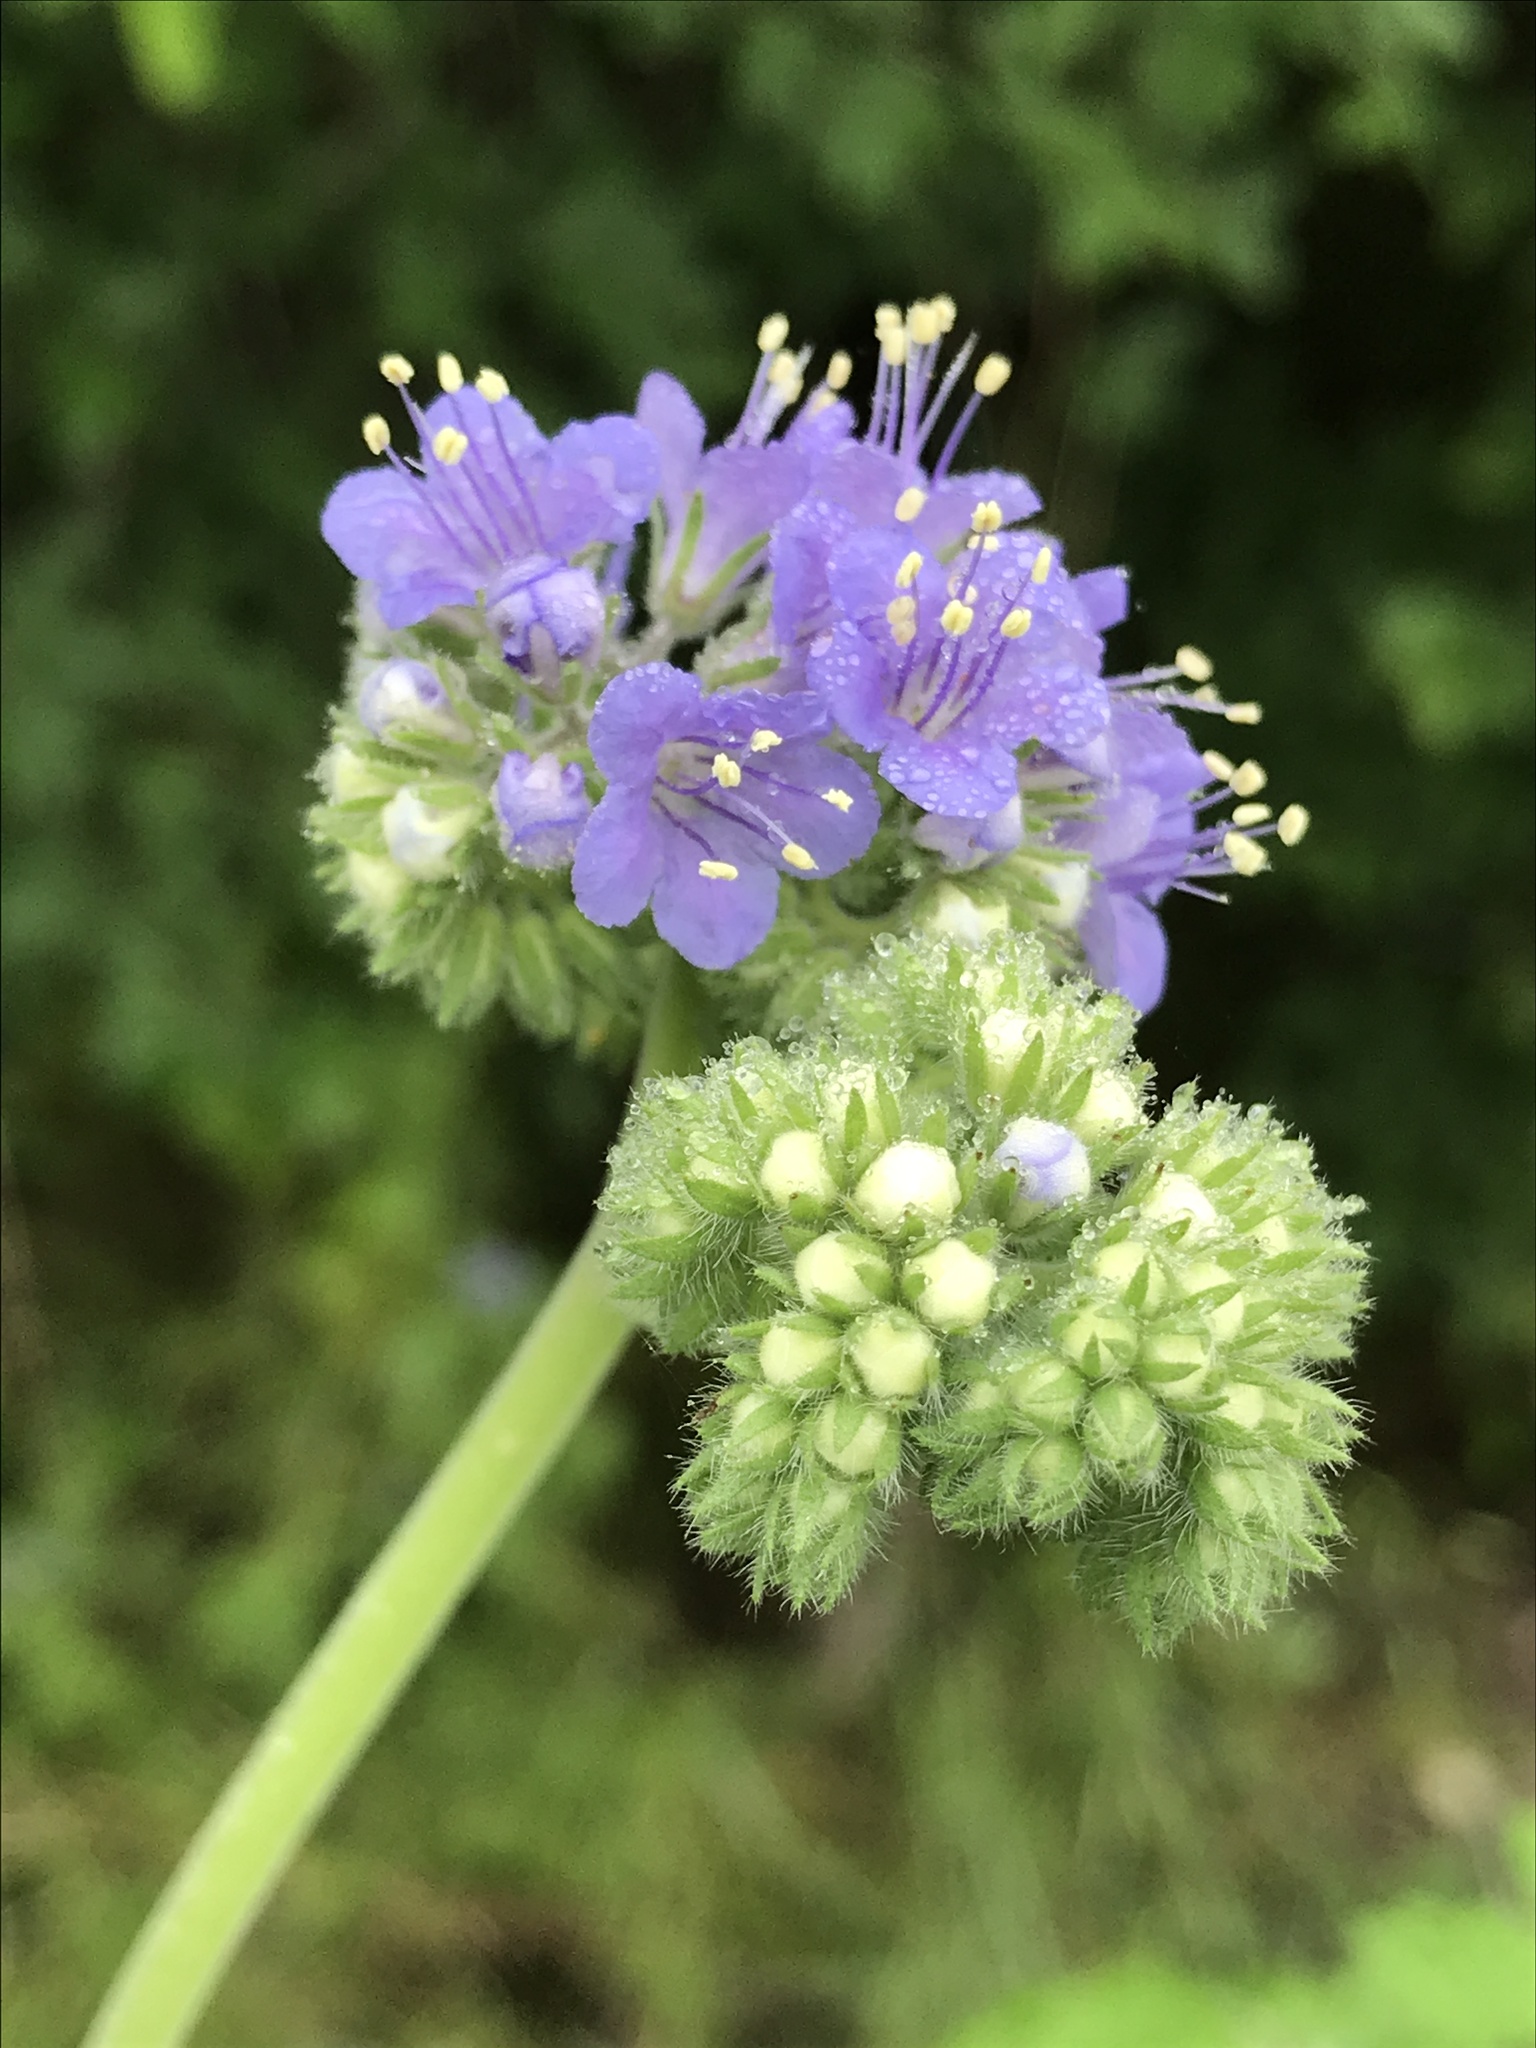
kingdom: Plantae
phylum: Tracheophyta
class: Magnoliopsida
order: Boraginales
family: Hydrophyllaceae
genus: Phacelia
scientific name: Phacelia congesta
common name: Blue curls
